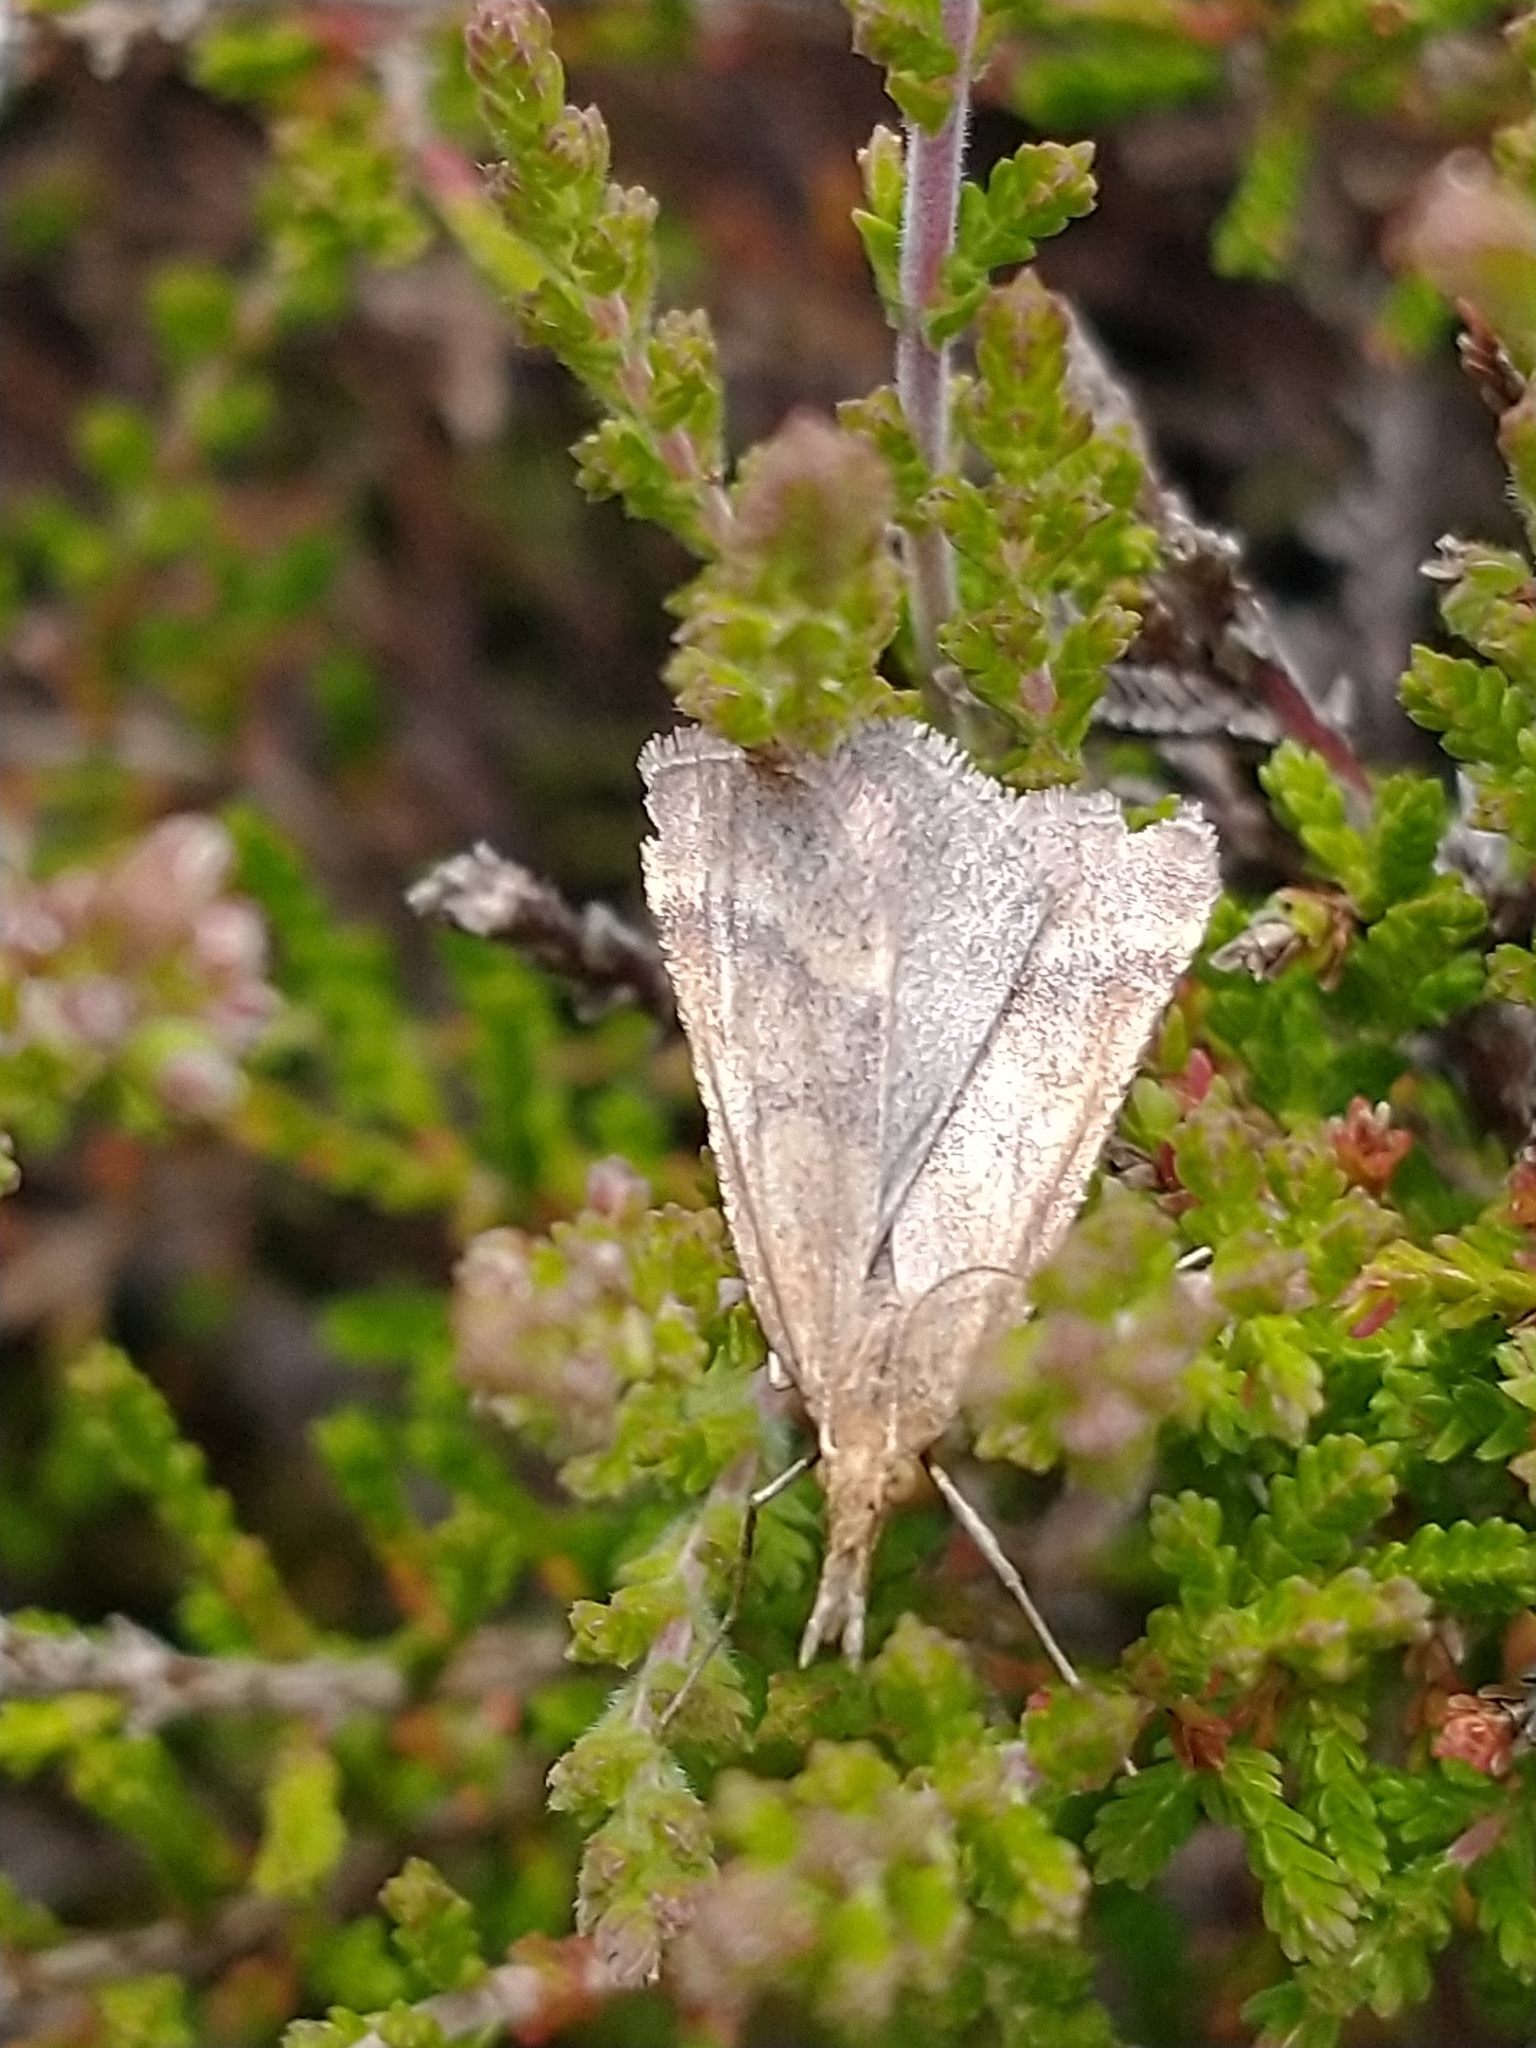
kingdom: Animalia
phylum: Arthropoda
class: Insecta
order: Lepidoptera
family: Pyralidae
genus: Synaphe
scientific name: Synaphe punctalis
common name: Long-legged tabby
